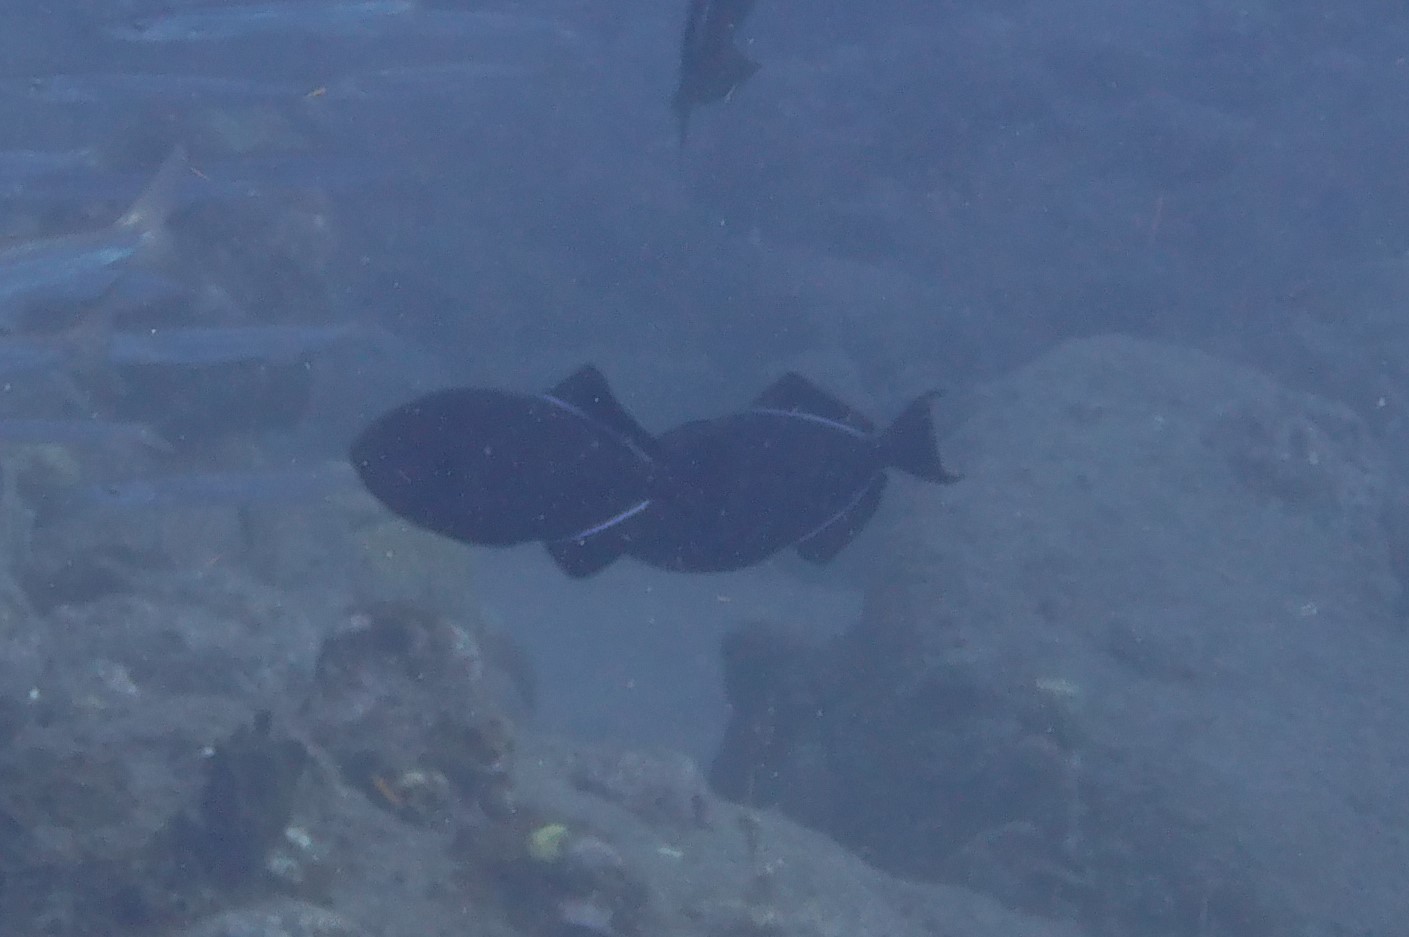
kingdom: Animalia
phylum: Chordata
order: Tetraodontiformes
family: Balistidae
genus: Melichthys
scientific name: Melichthys niger
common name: Black durgon
